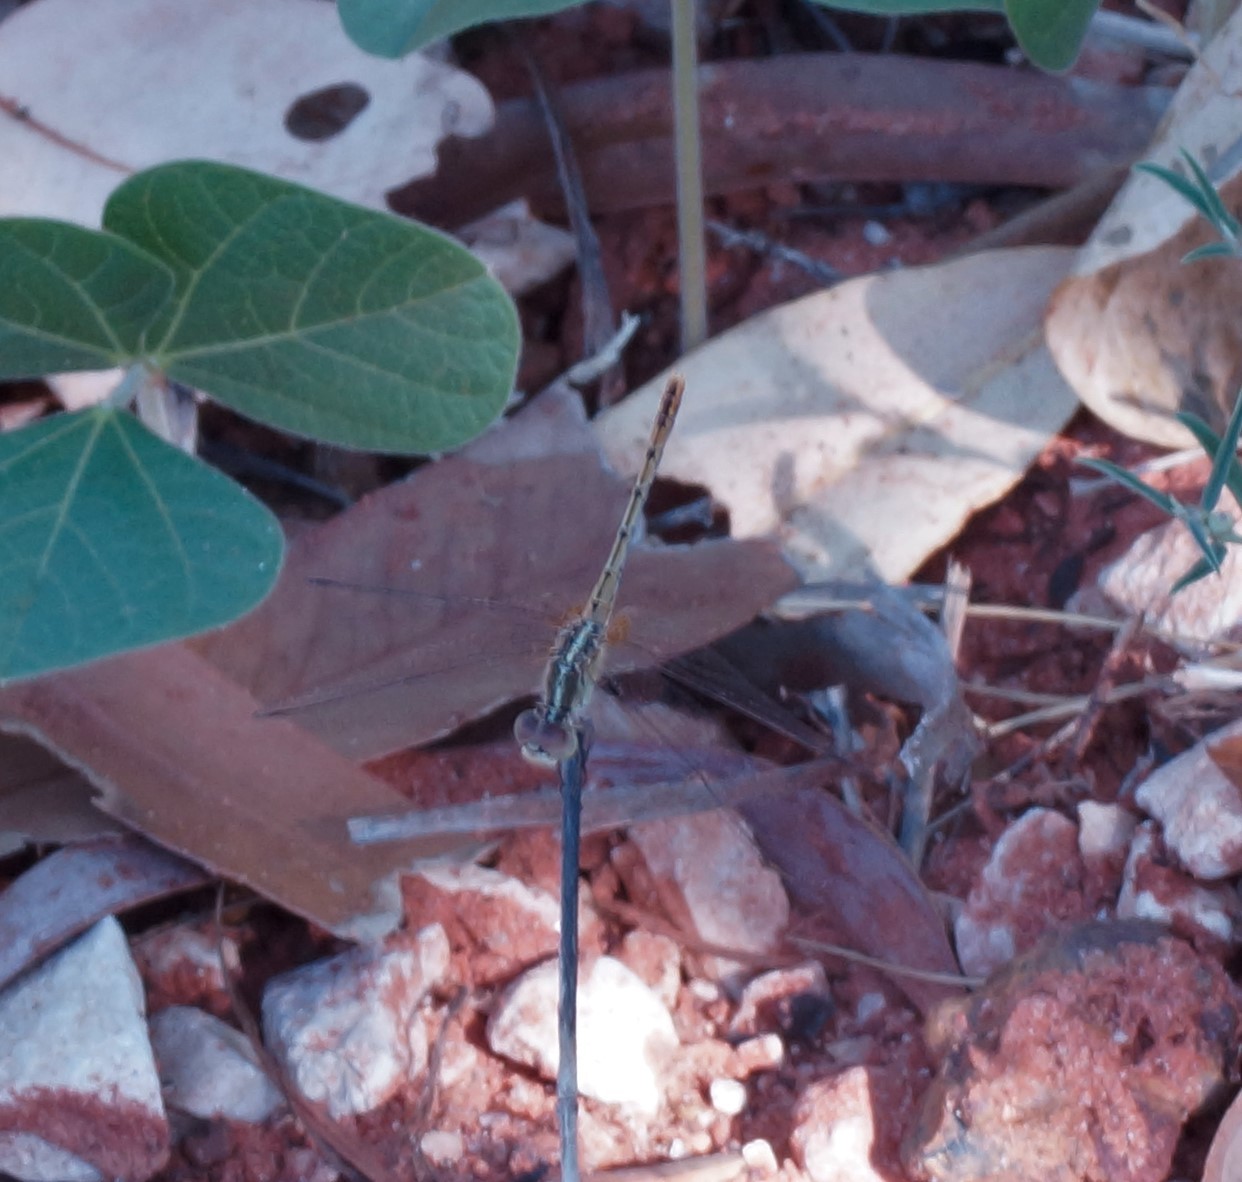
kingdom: Animalia
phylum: Arthropoda
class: Insecta
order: Odonata
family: Libellulidae
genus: Diplacodes
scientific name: Diplacodes bipunctata
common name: Red percher dragonfly
